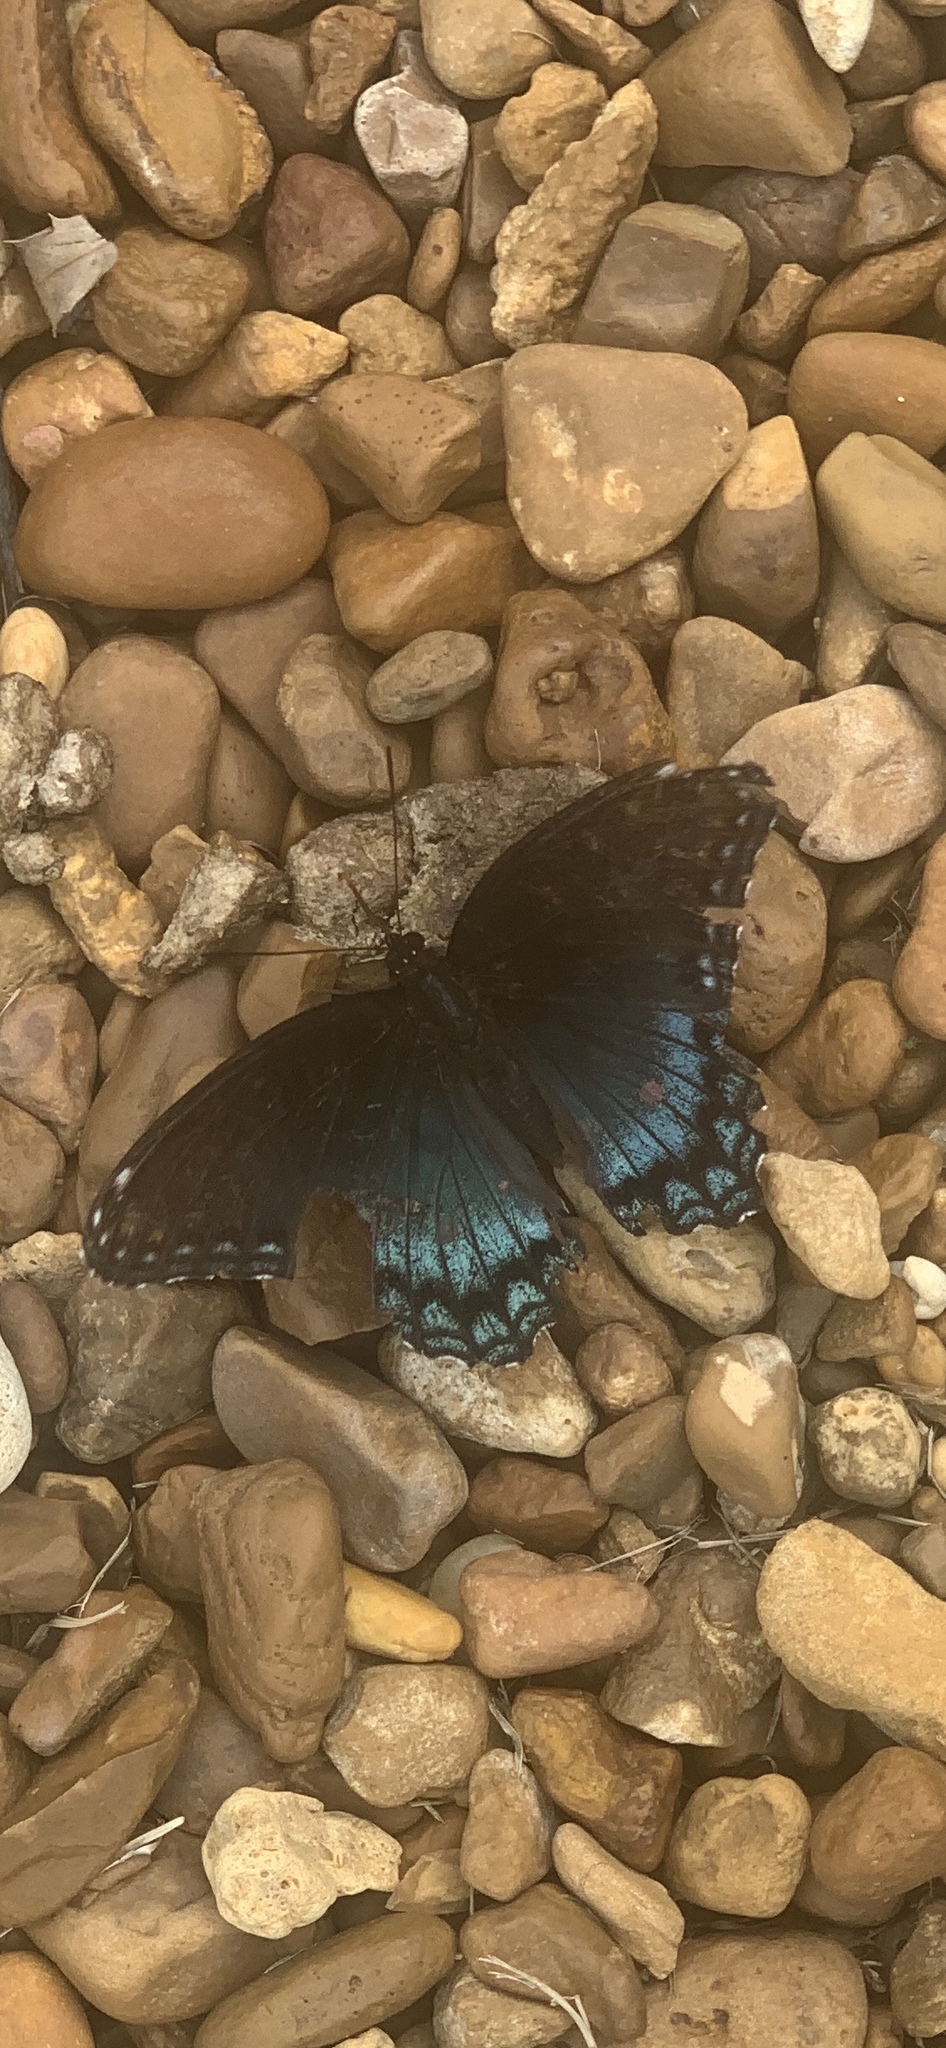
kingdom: Animalia
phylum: Arthropoda
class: Insecta
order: Lepidoptera
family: Nymphalidae
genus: Limenitis
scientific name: Limenitis astyanax
